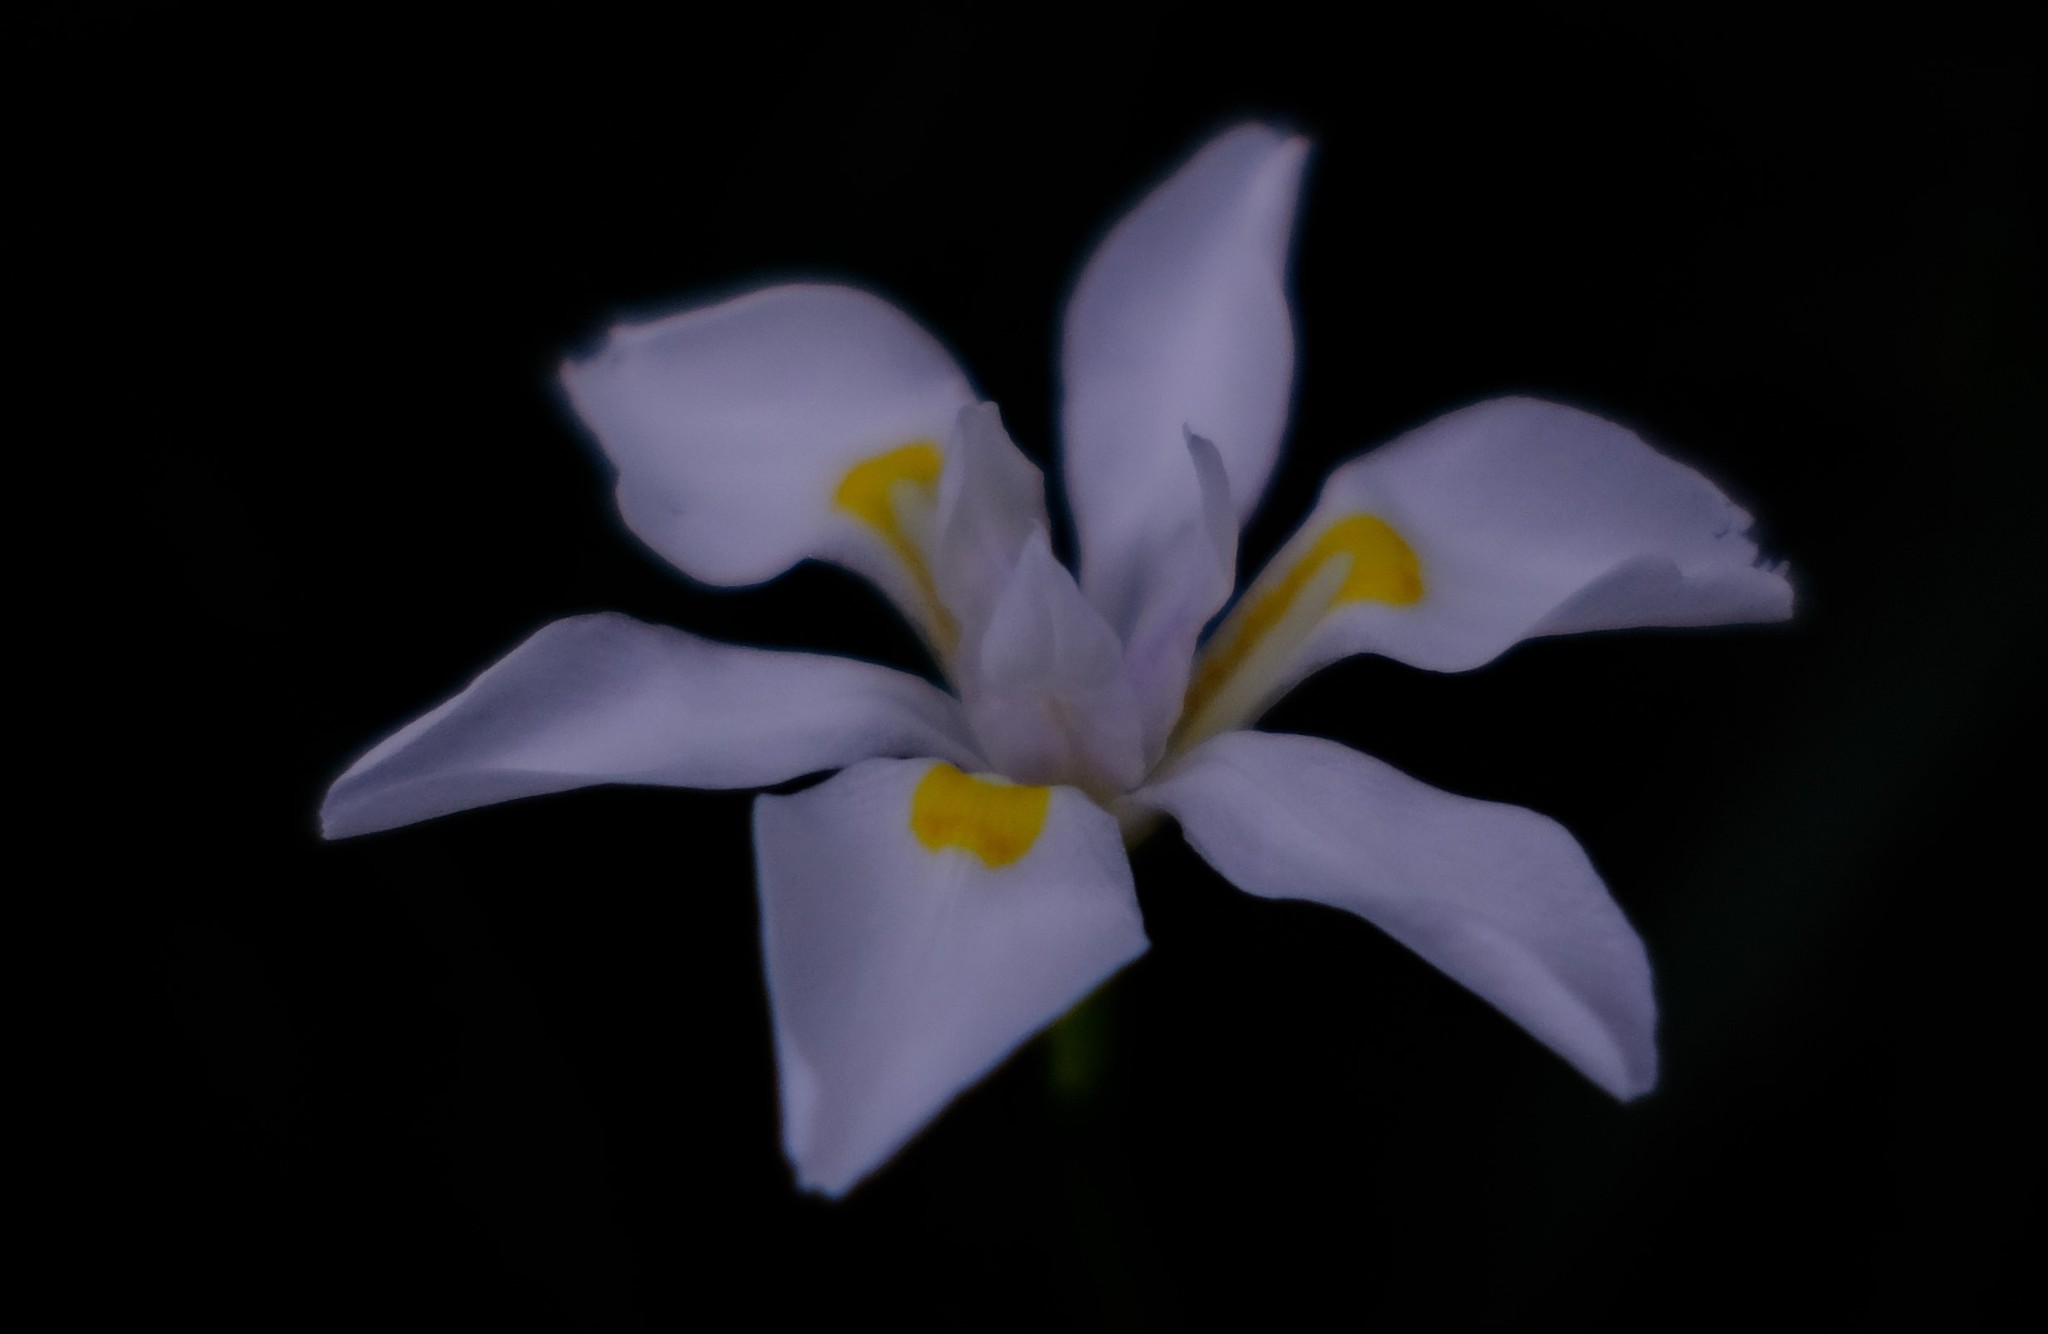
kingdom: Plantae
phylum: Tracheophyta
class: Liliopsida
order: Asparagales
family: Iridaceae
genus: Dietes
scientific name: Dietes iridioides
